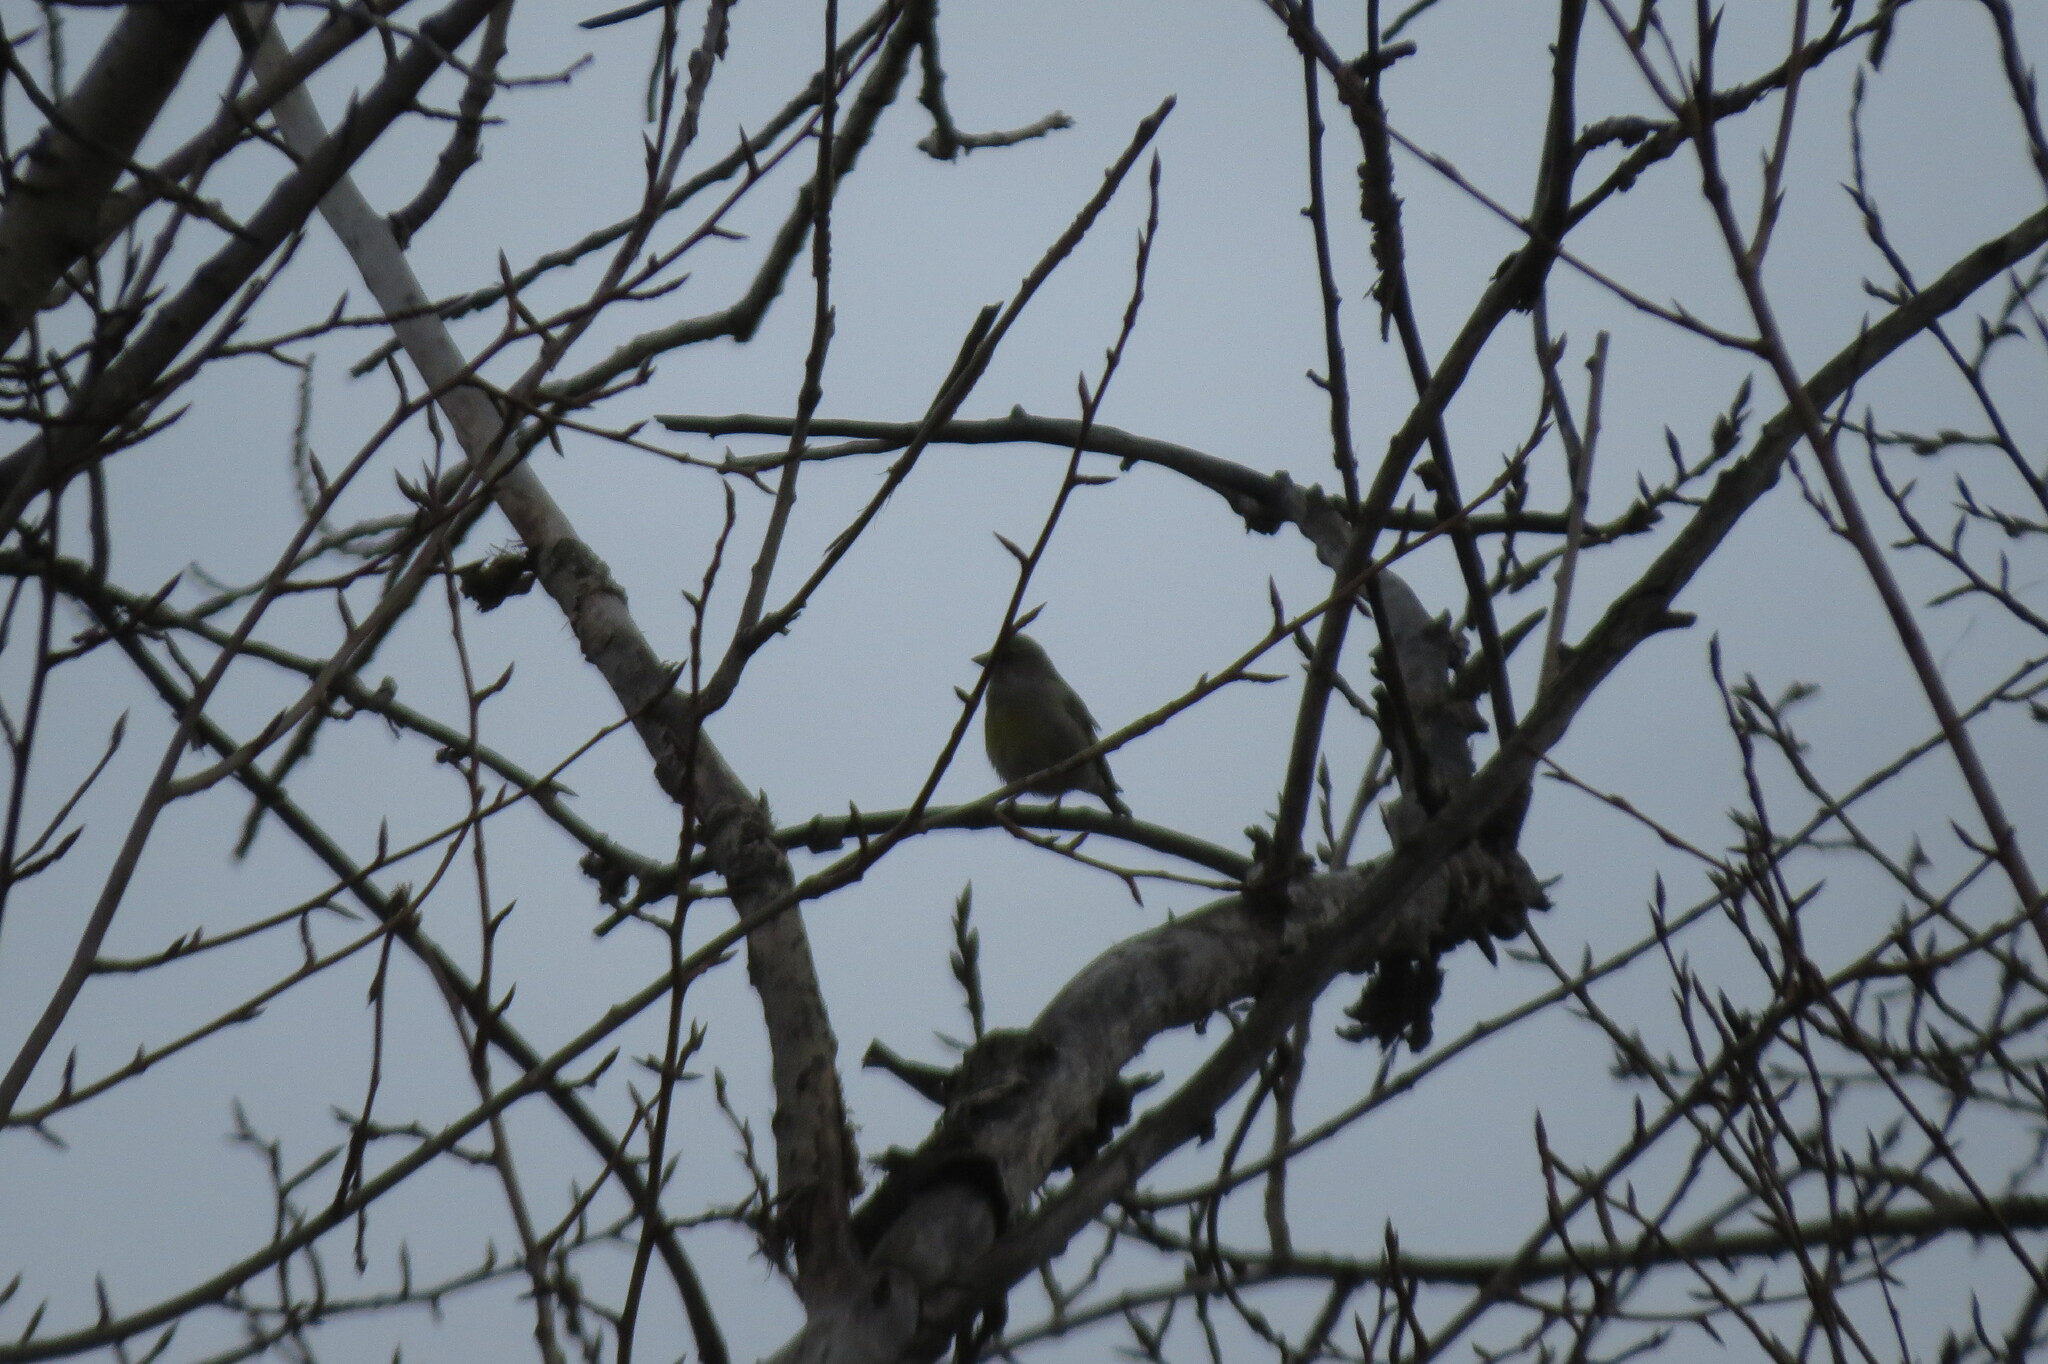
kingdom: Plantae
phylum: Tracheophyta
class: Liliopsida
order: Poales
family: Poaceae
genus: Chloris
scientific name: Chloris chloris
